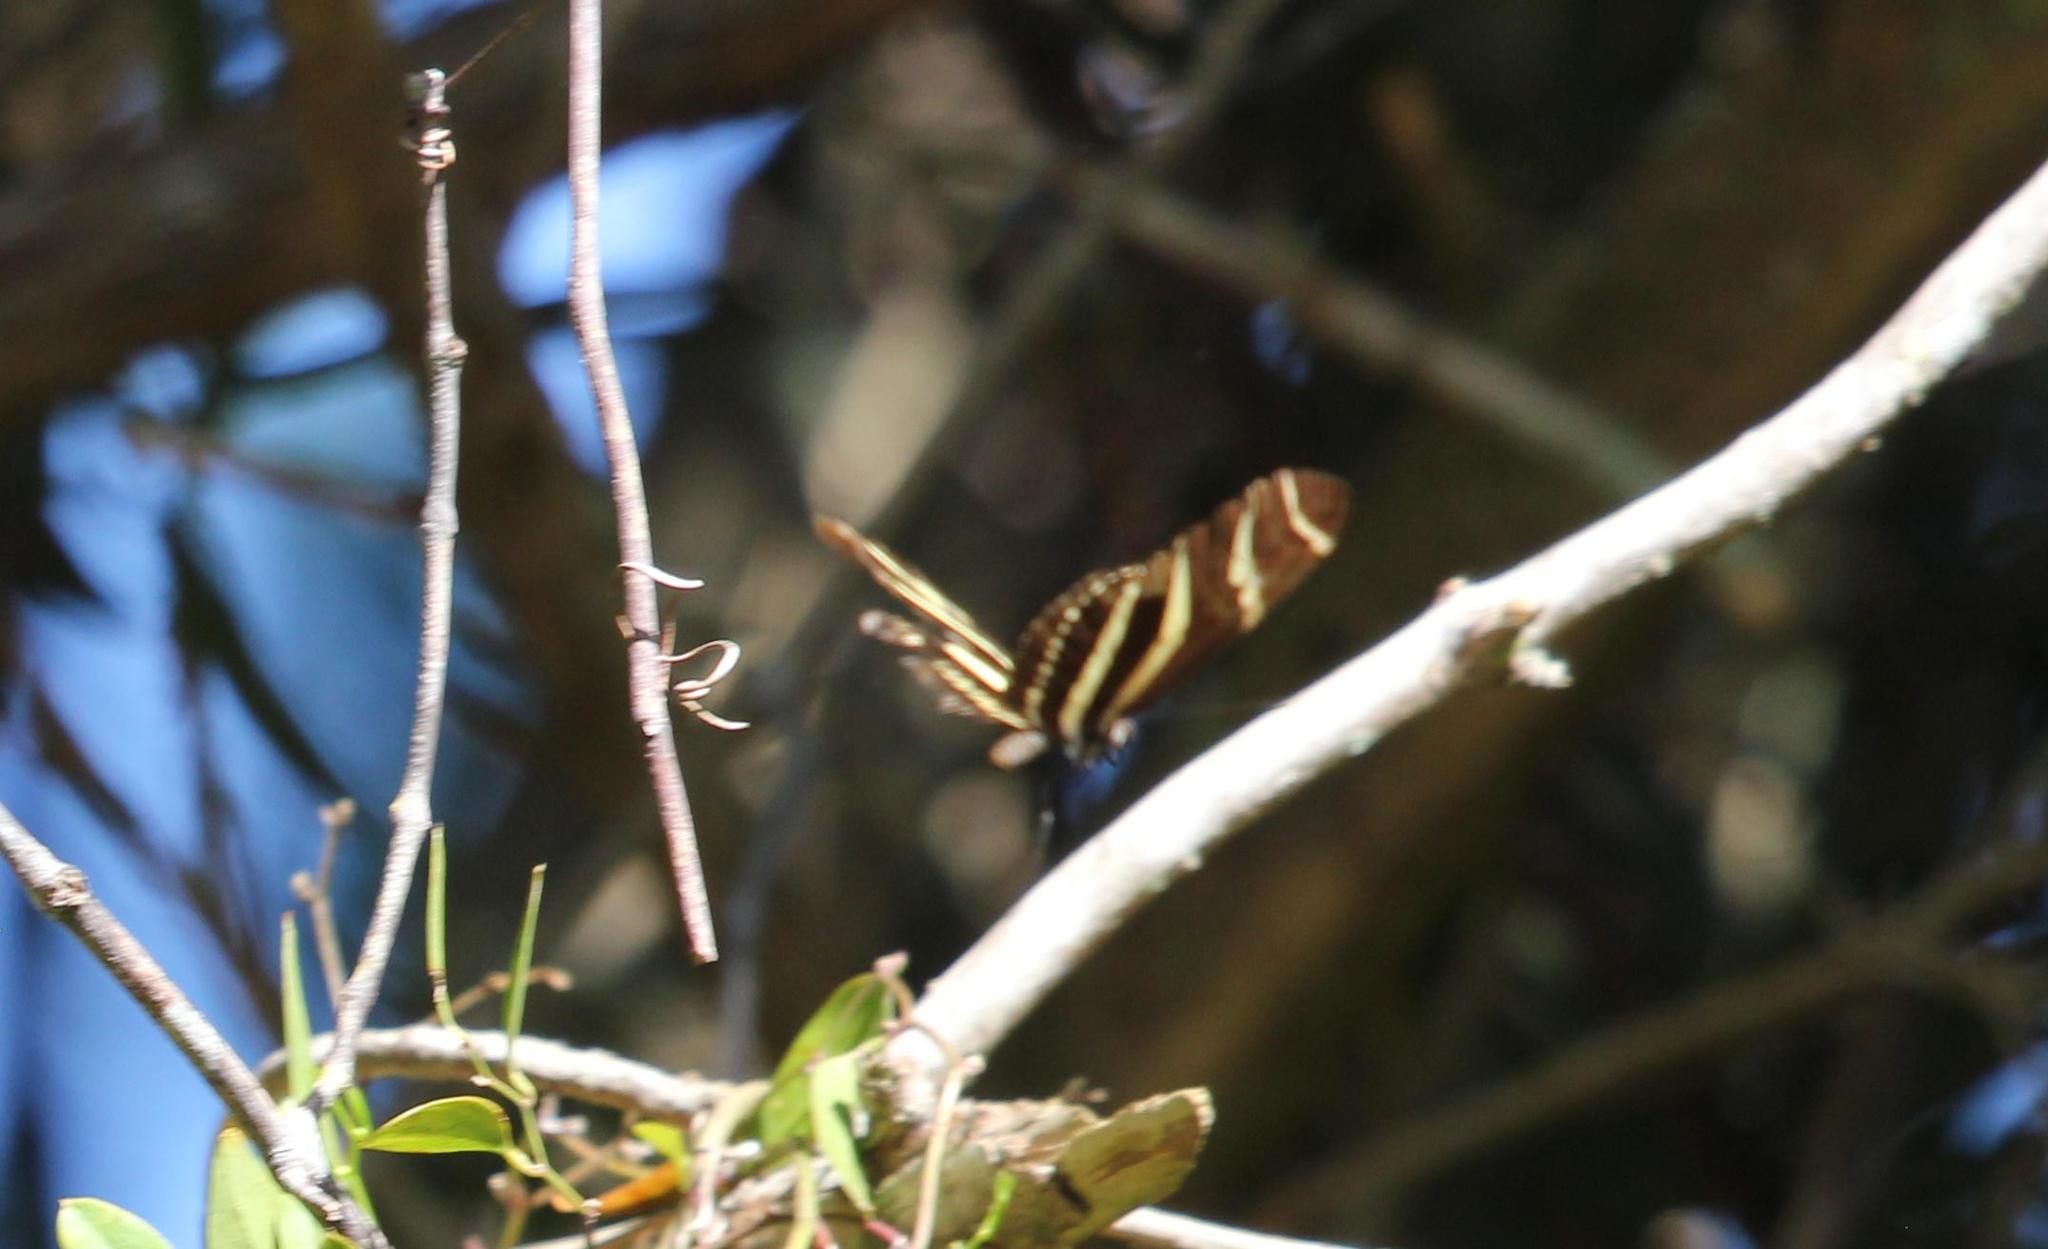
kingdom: Animalia
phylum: Arthropoda
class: Insecta
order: Lepidoptera
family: Nymphalidae
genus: Heliconius
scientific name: Heliconius charithonia
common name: Zebra long wing
